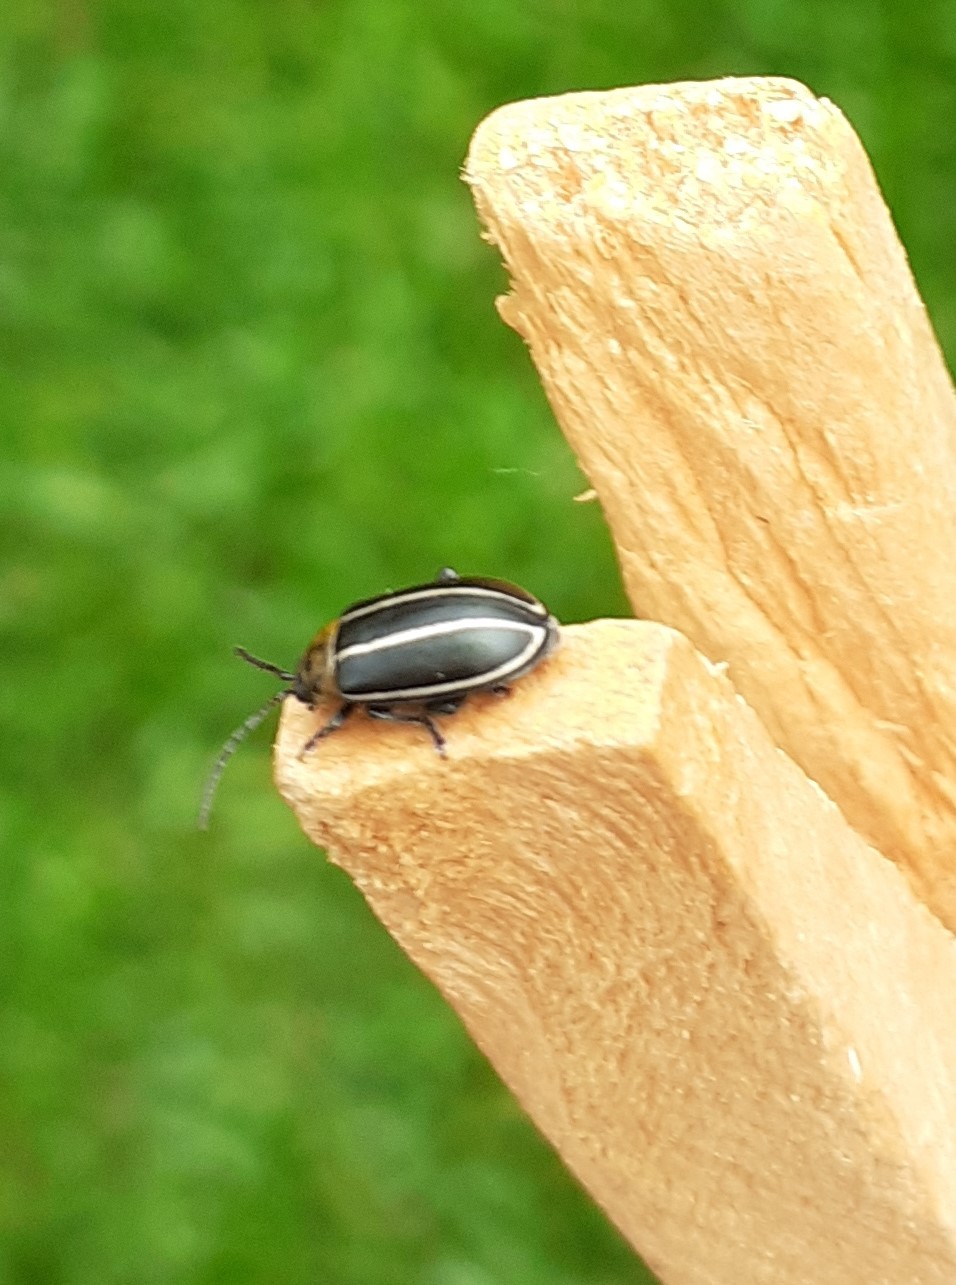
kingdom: Animalia
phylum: Arthropoda
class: Insecta
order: Coleoptera
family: Chrysomelidae
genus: Disonycha
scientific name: Disonycha
